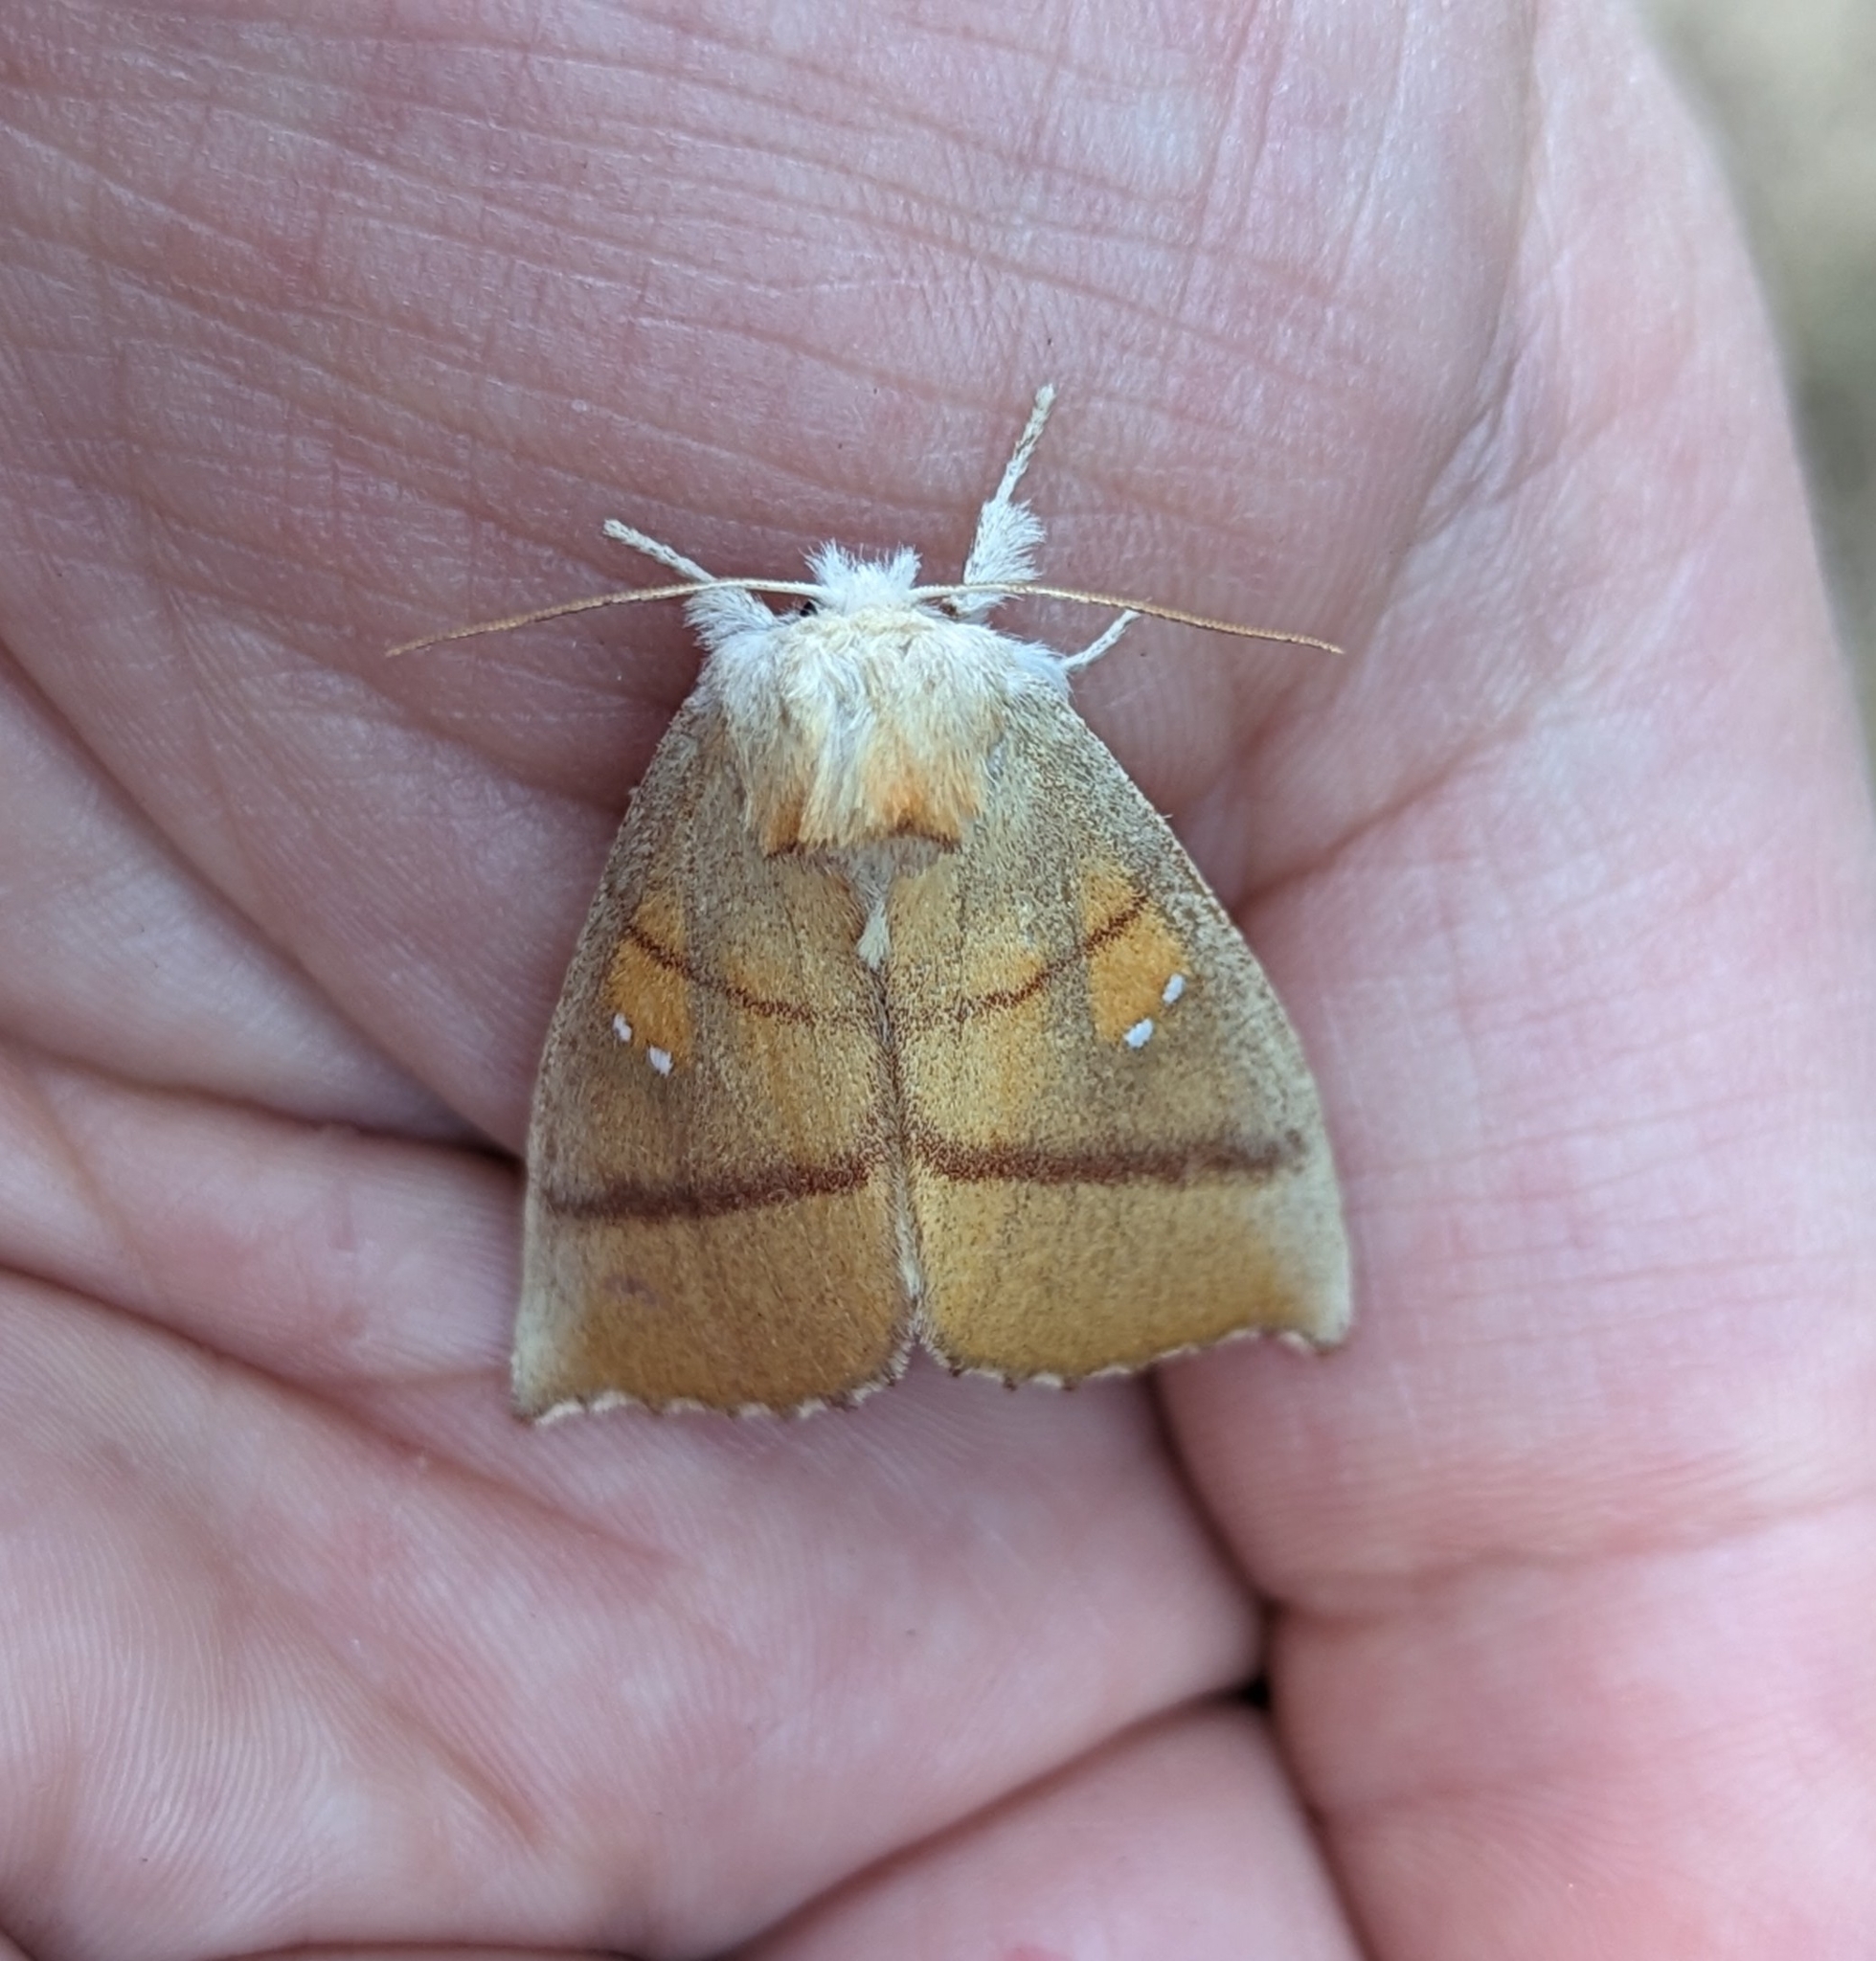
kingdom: Animalia
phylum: Arthropoda
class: Insecta
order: Lepidoptera
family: Notodontidae
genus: Nadata
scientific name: Nadata gibbosa
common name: White-dotted prominent
